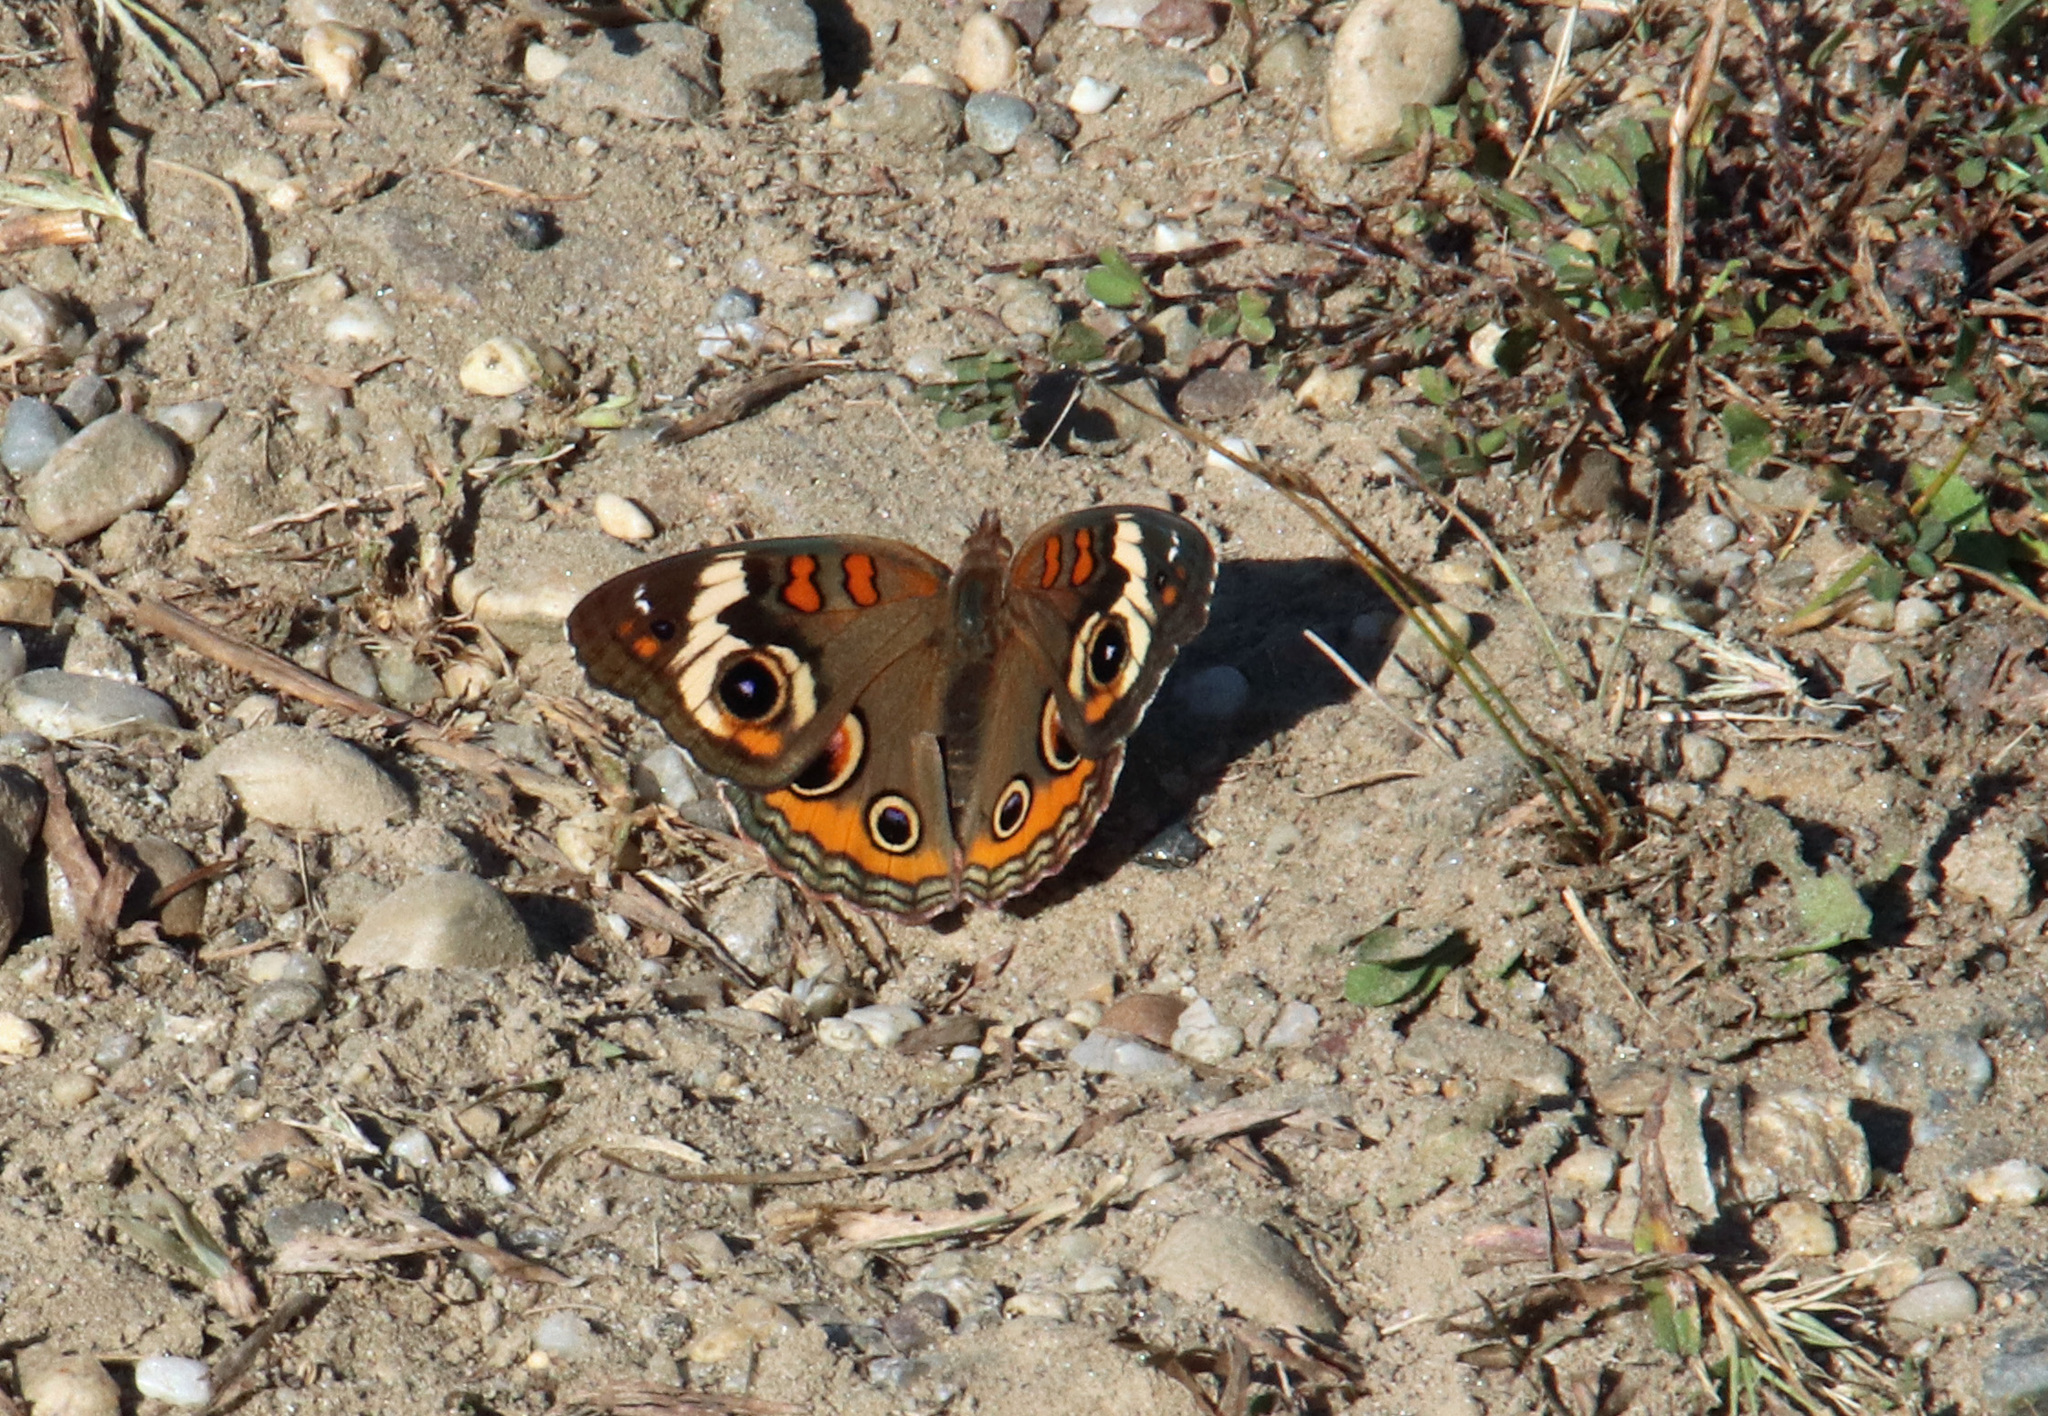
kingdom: Animalia
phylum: Arthropoda
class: Insecta
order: Lepidoptera
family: Nymphalidae
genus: Junonia
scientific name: Junonia coenia
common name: Common buckeye
